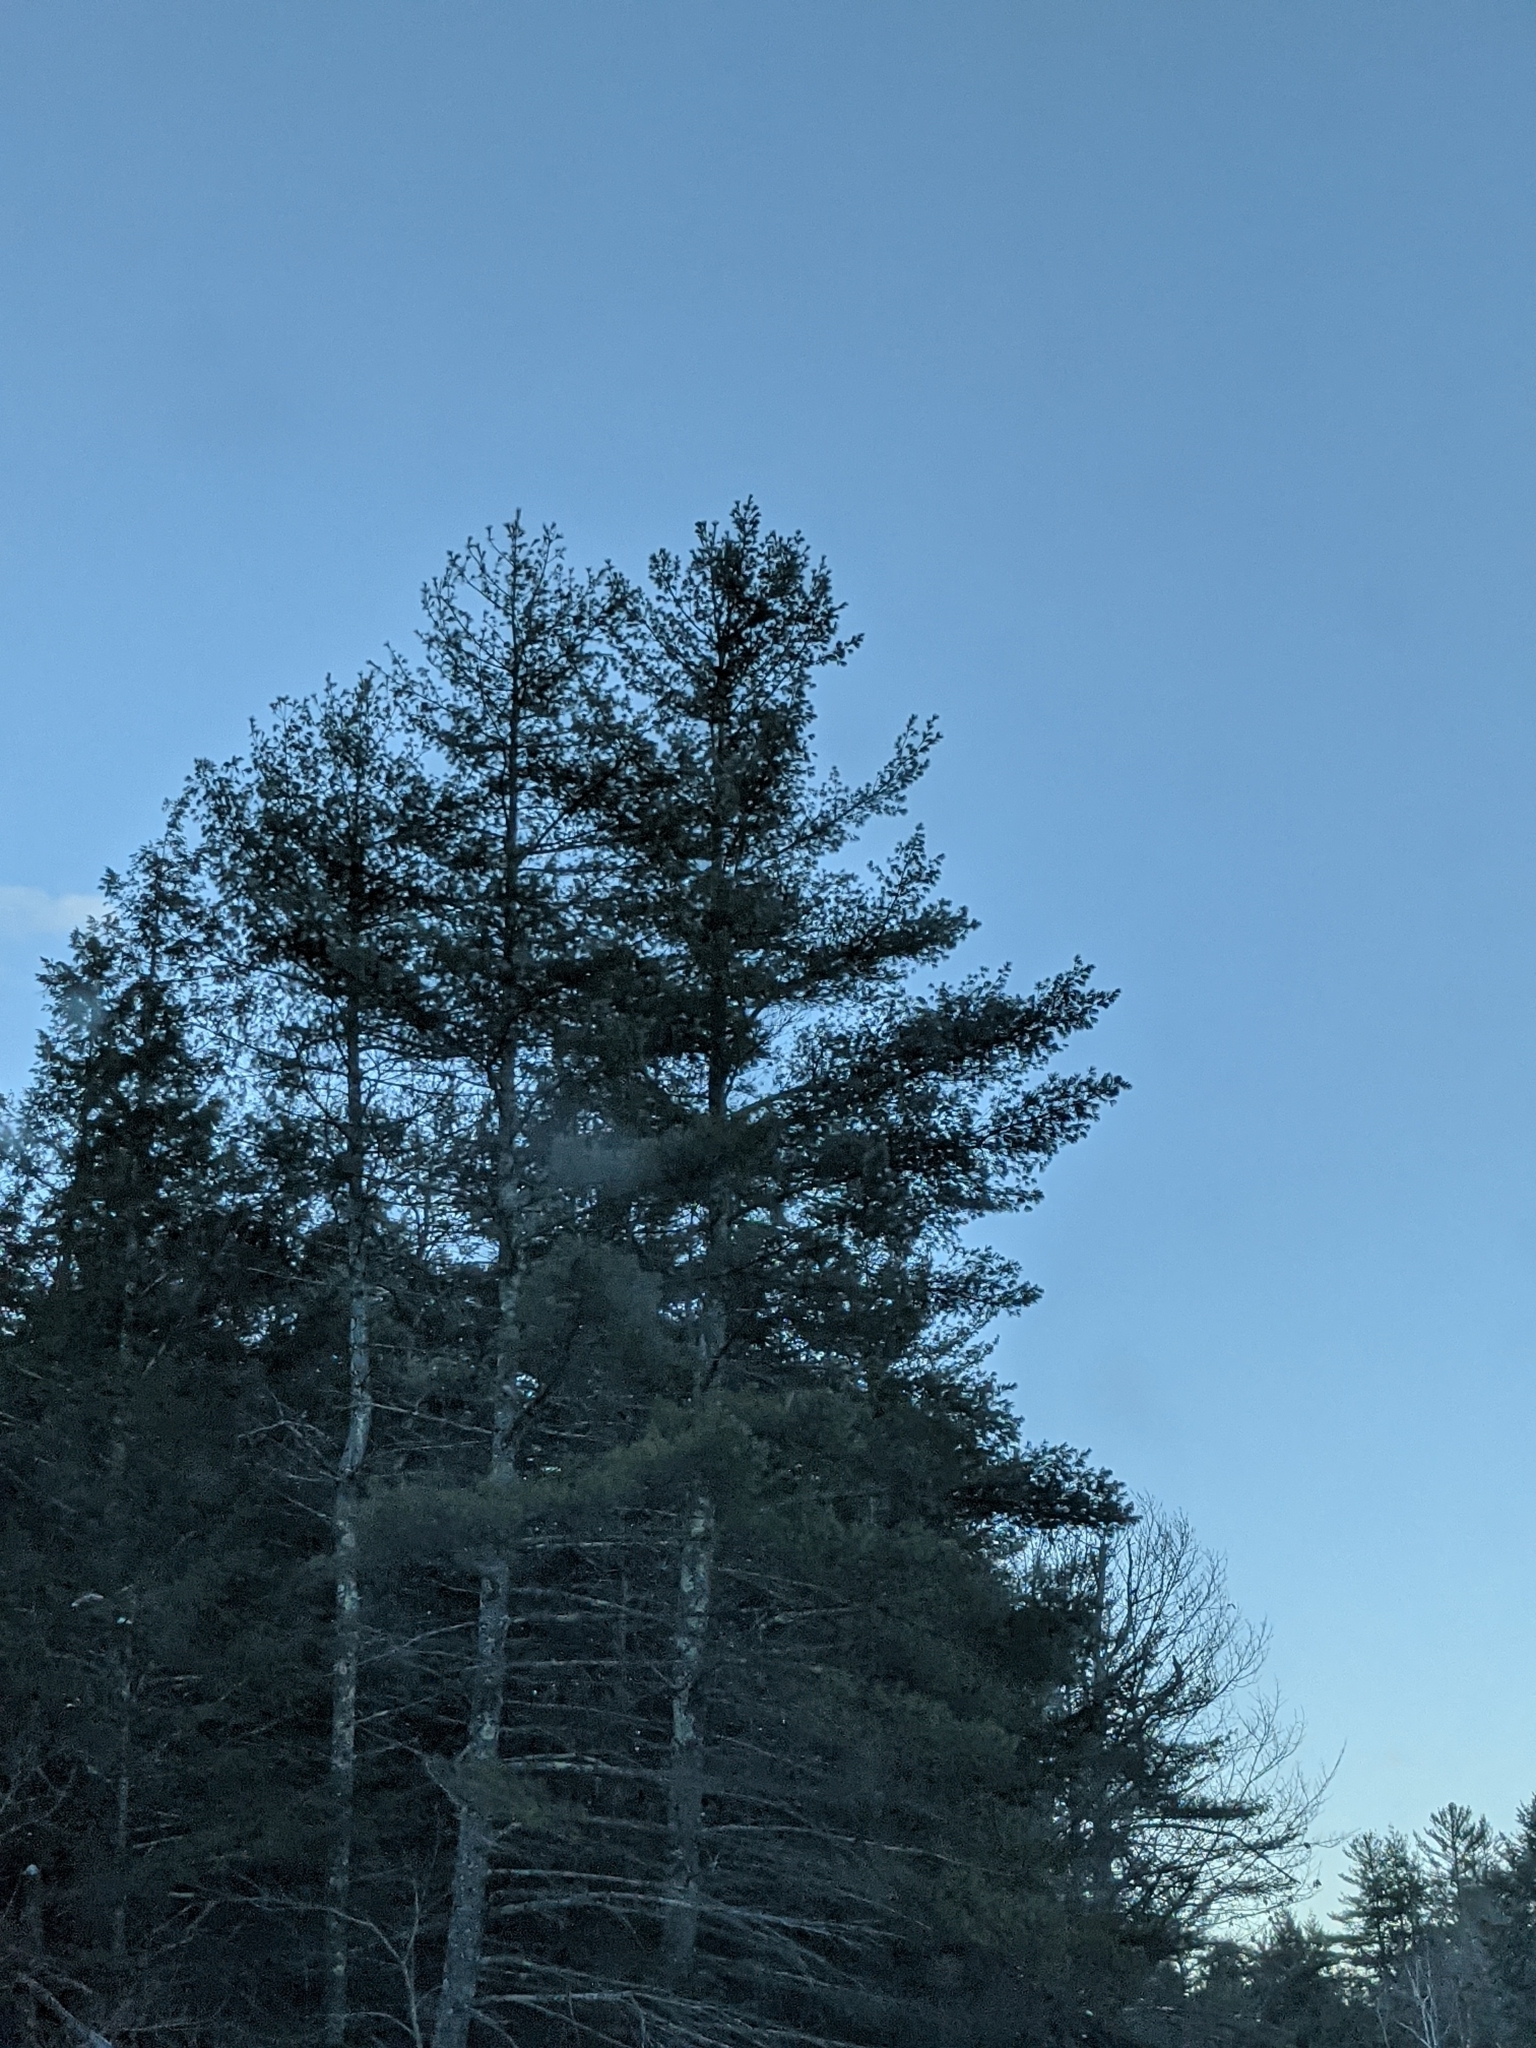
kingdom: Plantae
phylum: Tracheophyta
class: Pinopsida
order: Pinales
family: Pinaceae
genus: Pinus
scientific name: Pinus strobus
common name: Weymouth pine
